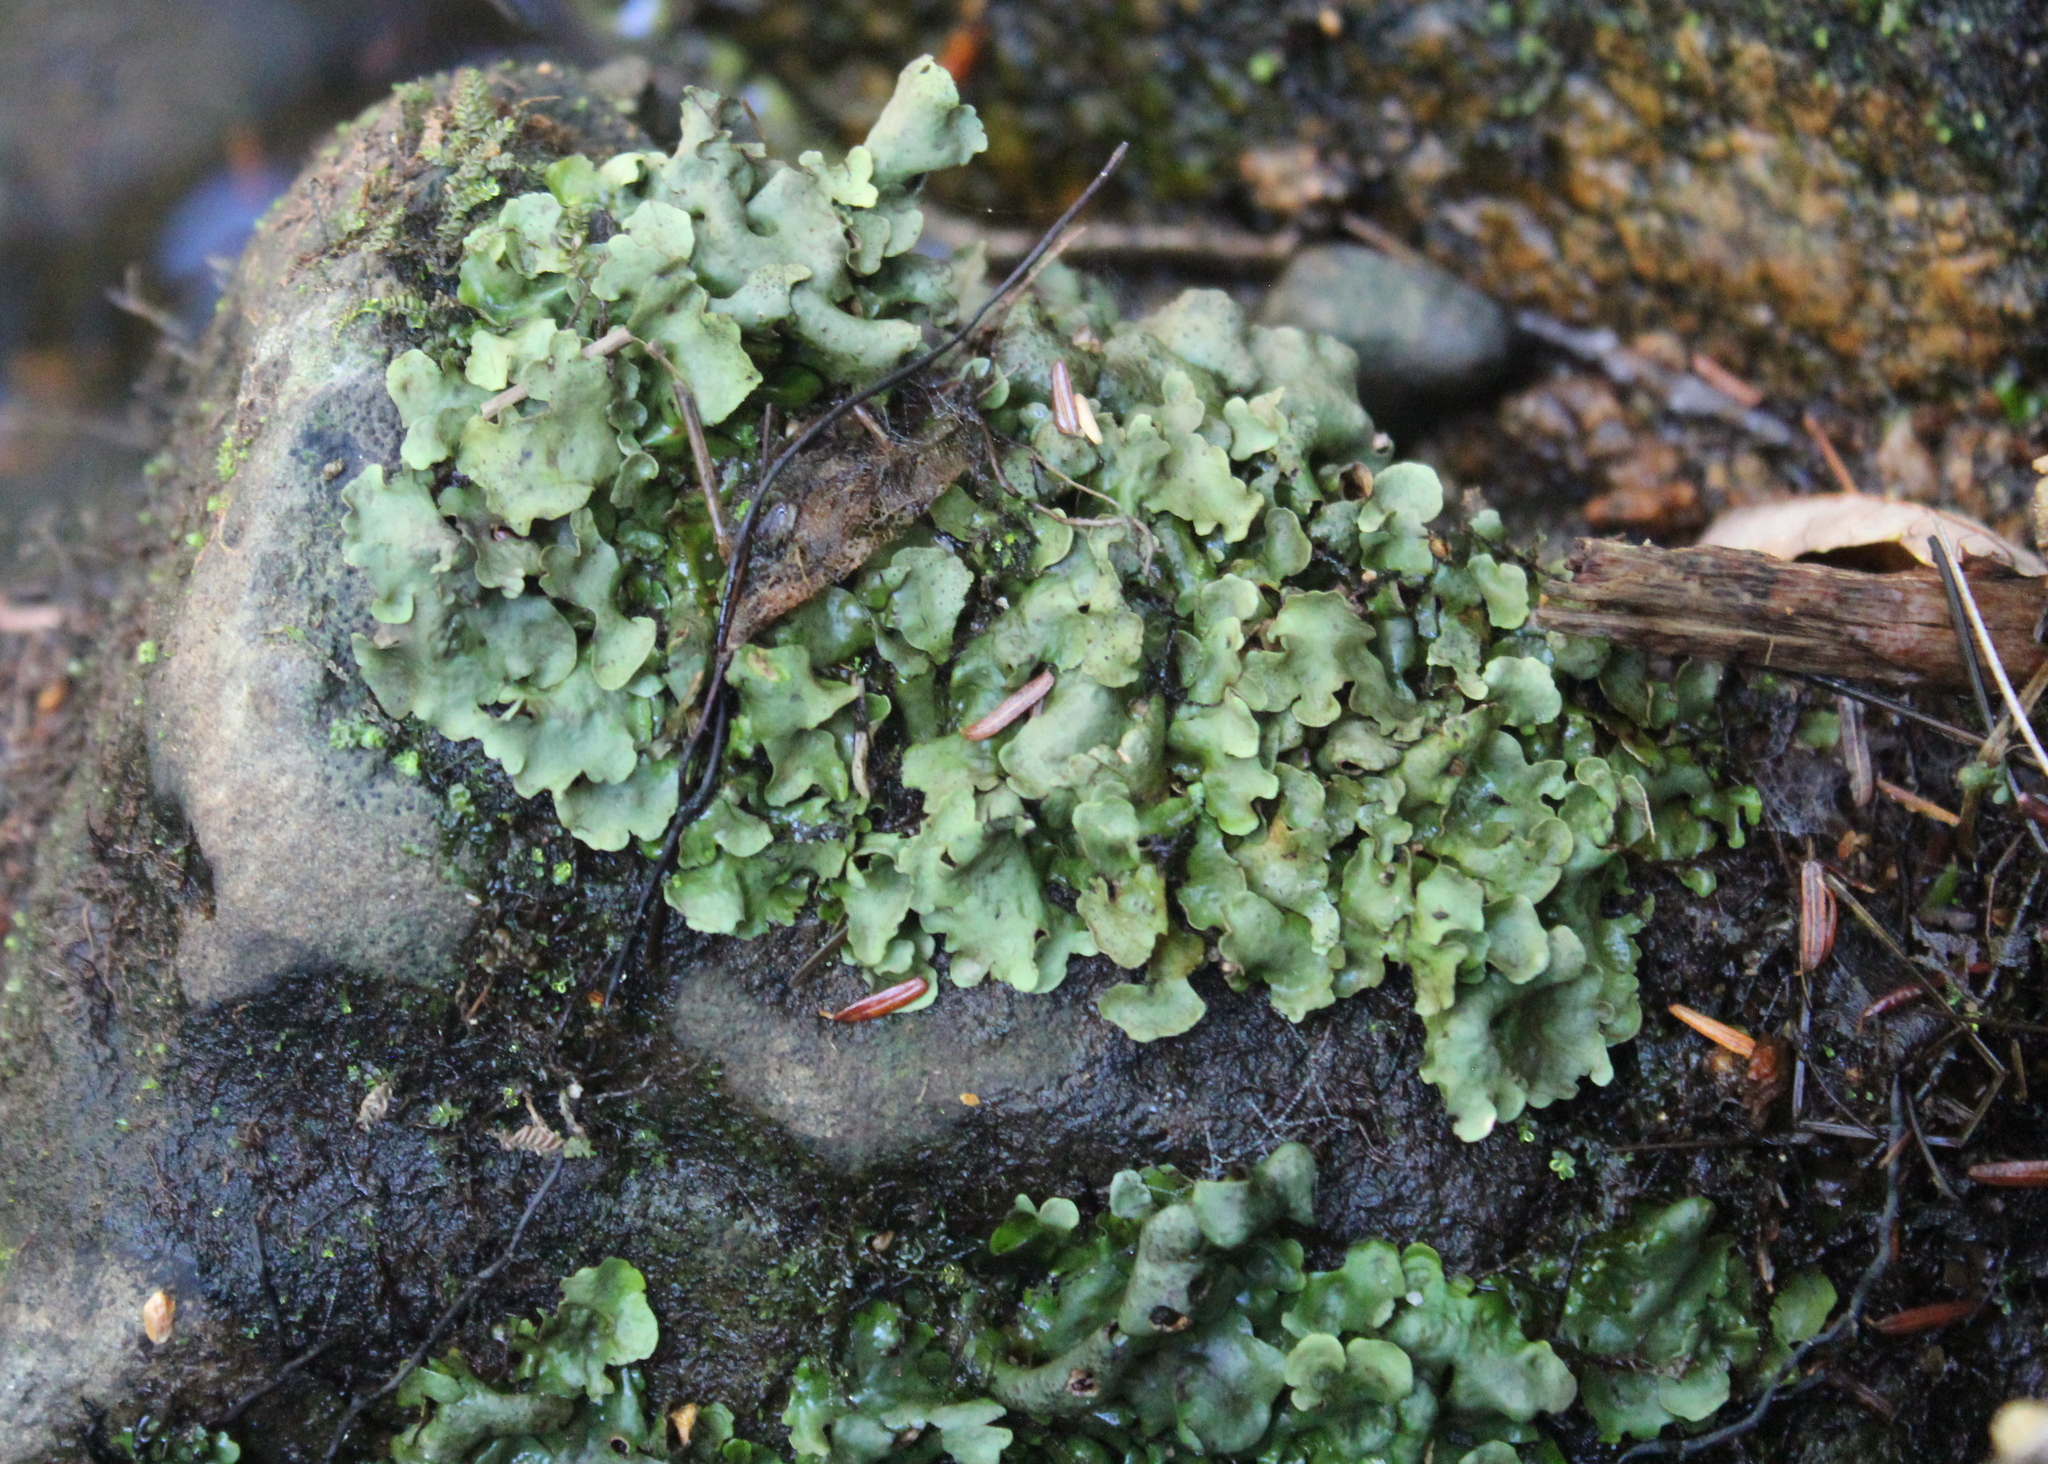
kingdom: Fungi
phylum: Ascomycota
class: Eurotiomycetes
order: Verrucariales
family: Verrucariaceae
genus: Dermatocarpon
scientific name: Dermatocarpon luridum
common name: Brook stippleback lichen
